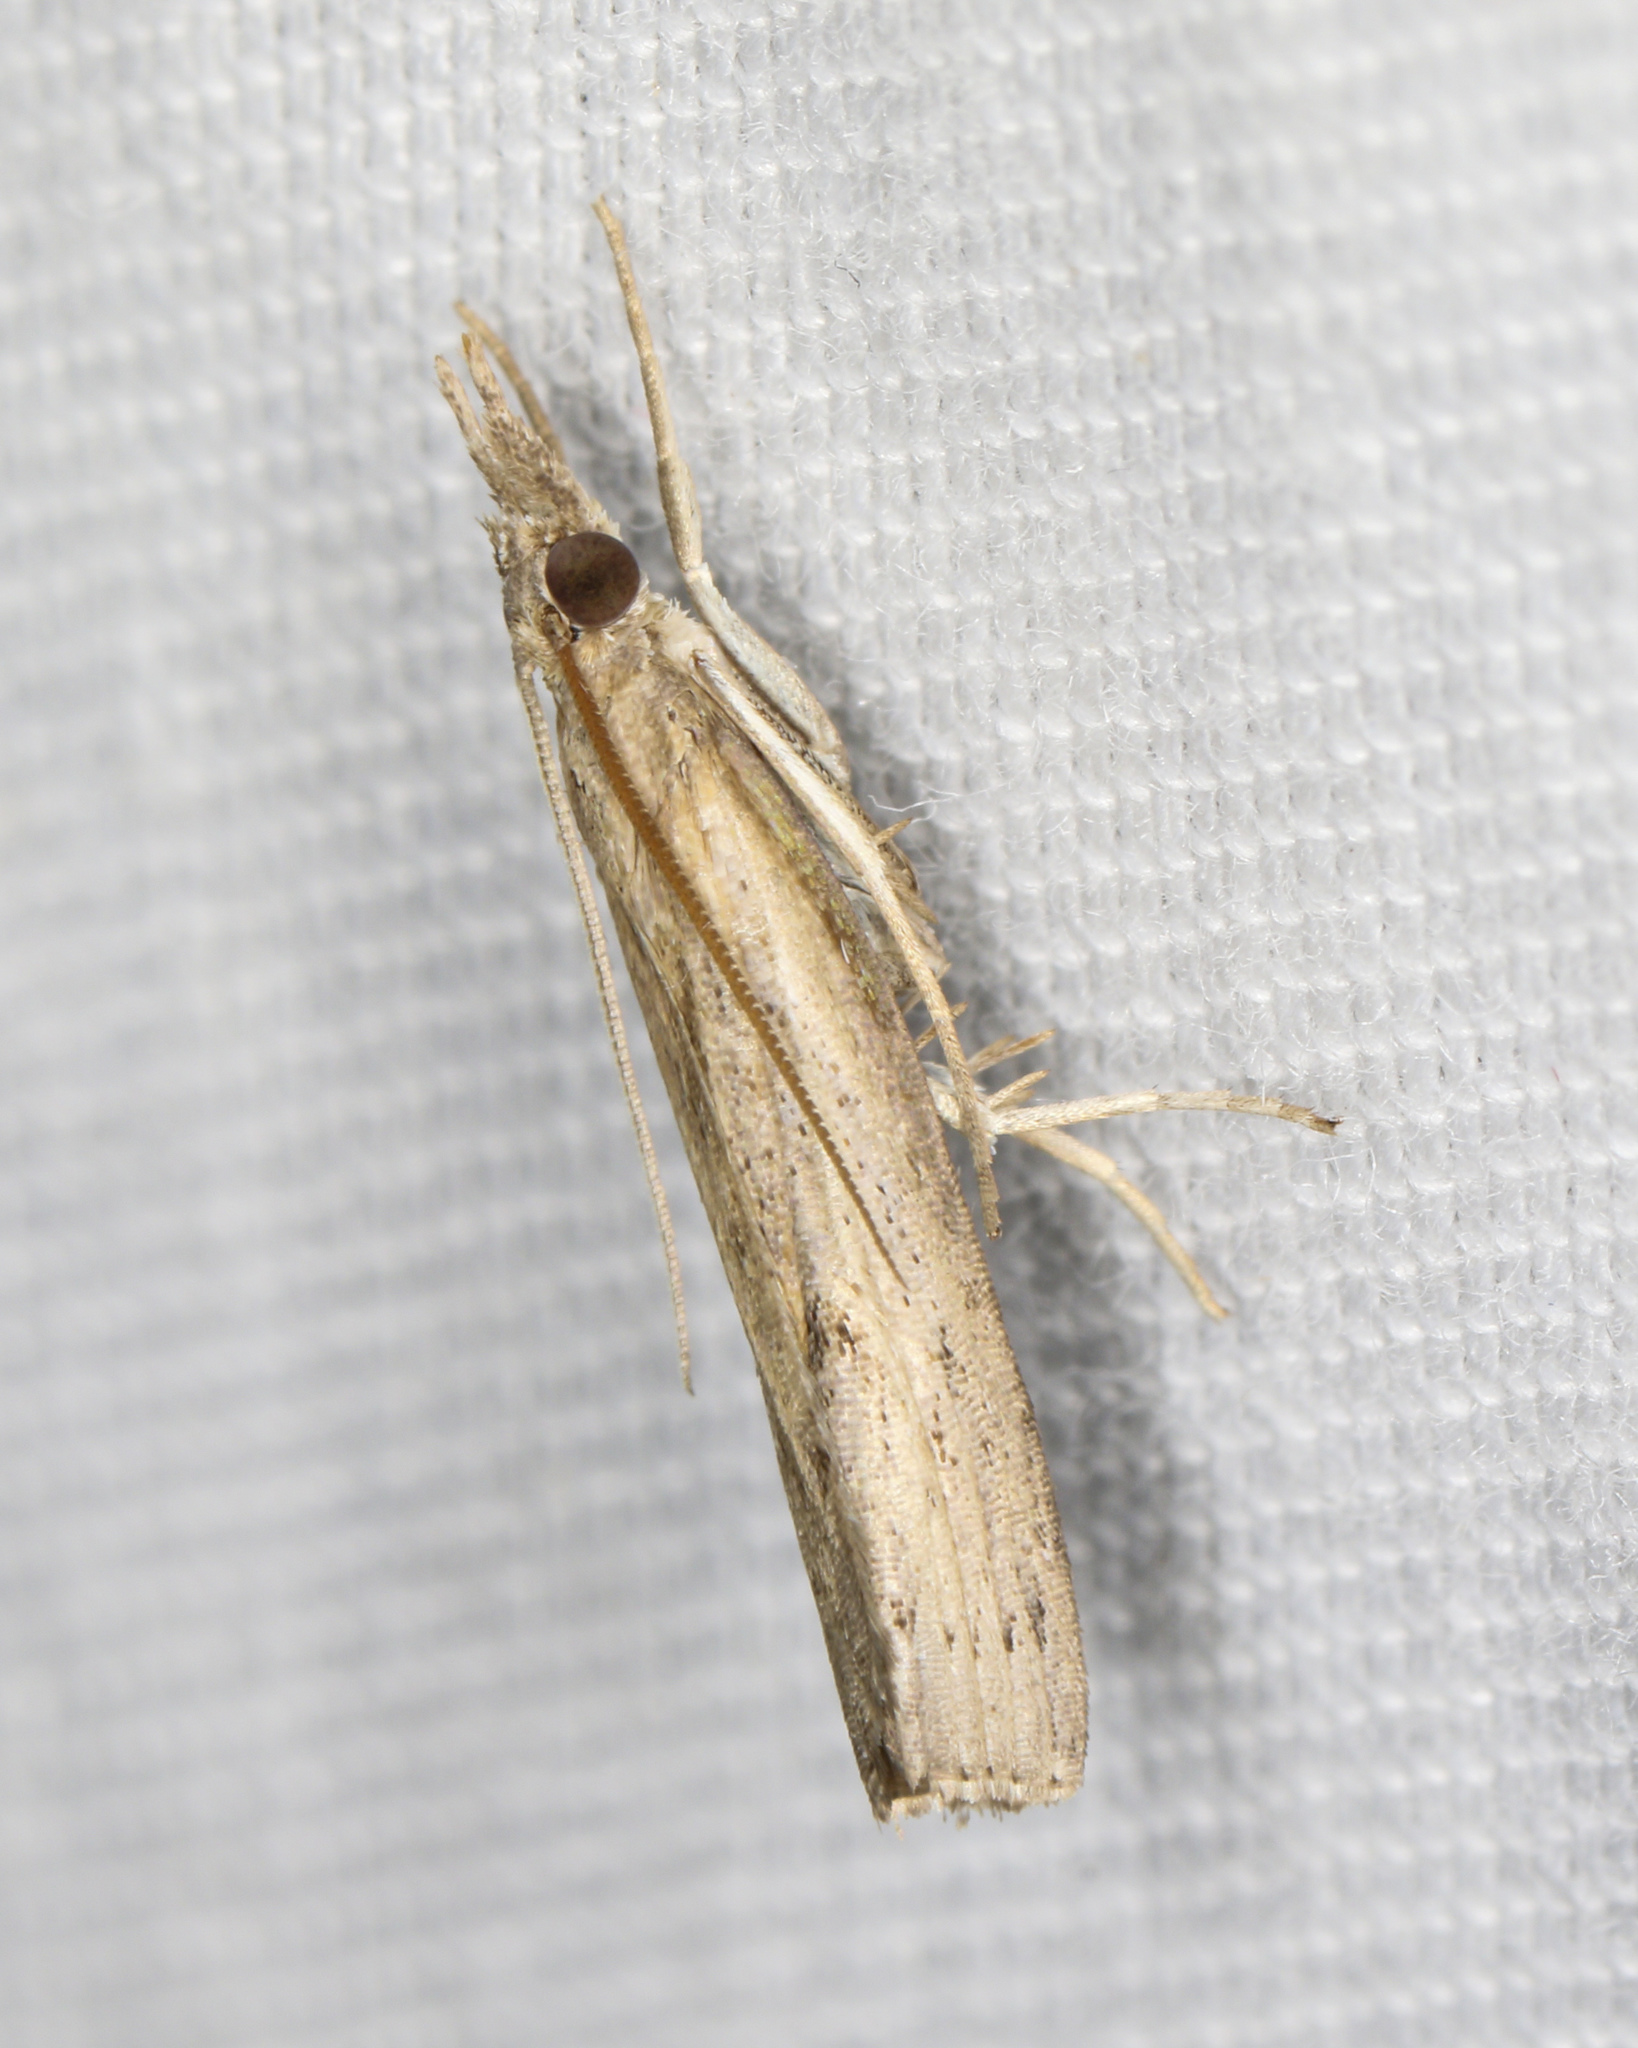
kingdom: Animalia
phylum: Arthropoda
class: Insecta
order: Lepidoptera
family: Crambidae
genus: Fissicrambus
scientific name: Fissicrambus mutabilis
